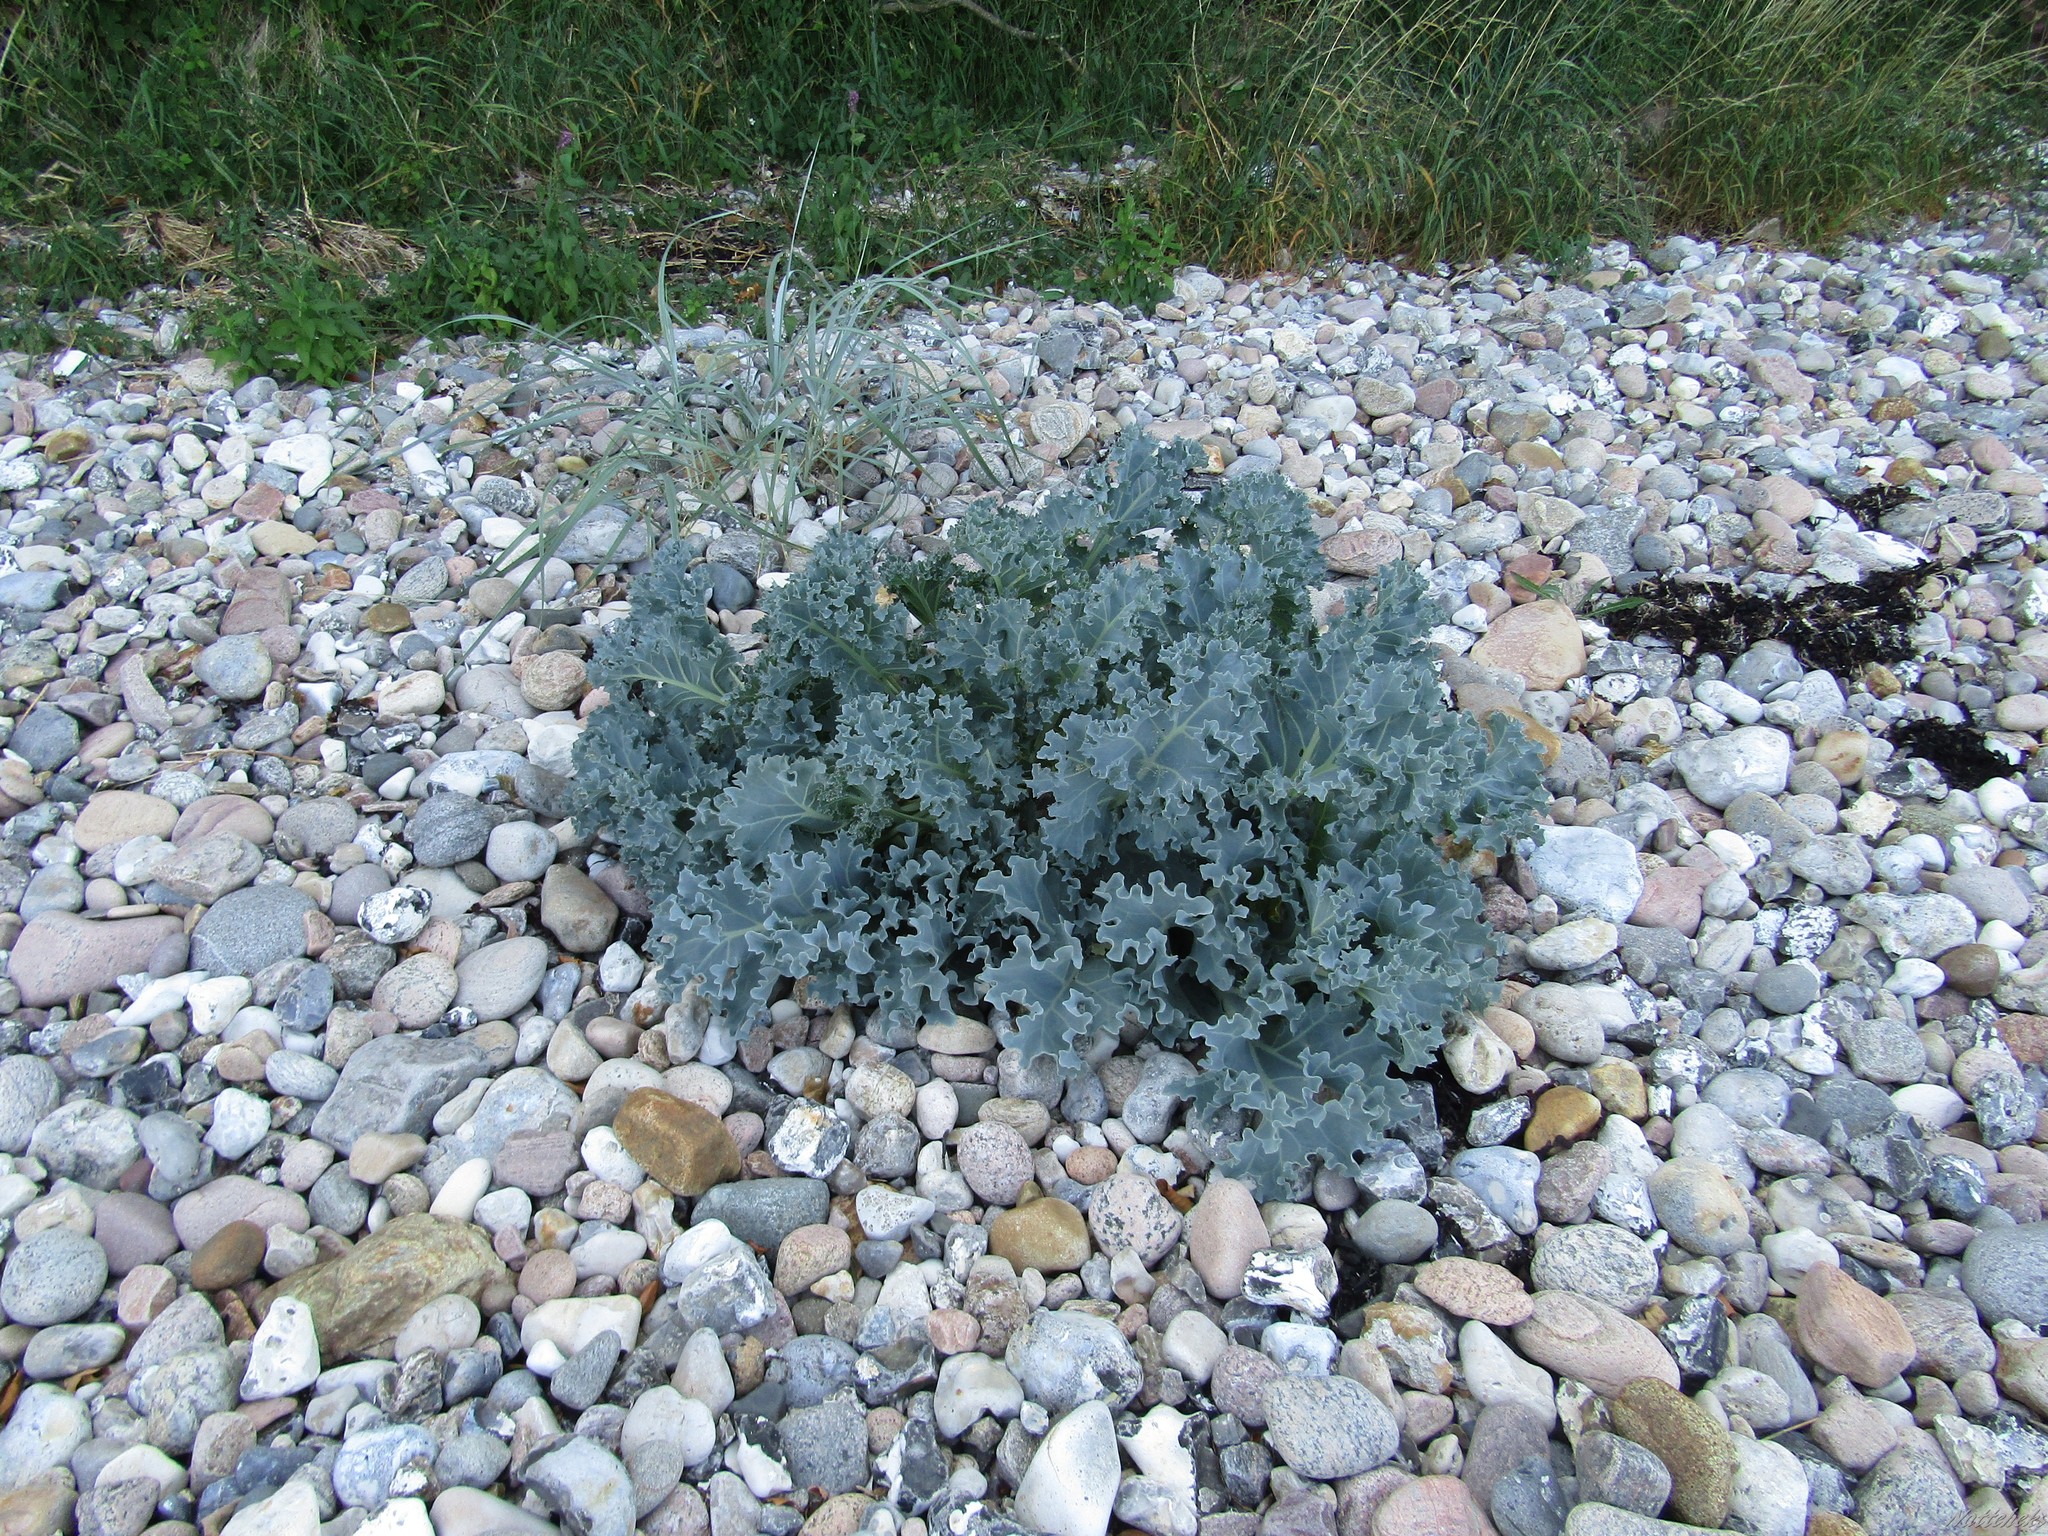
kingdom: Plantae
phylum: Tracheophyta
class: Magnoliopsida
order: Brassicales
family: Brassicaceae
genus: Crambe
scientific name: Crambe maritima
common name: Sea-kale
